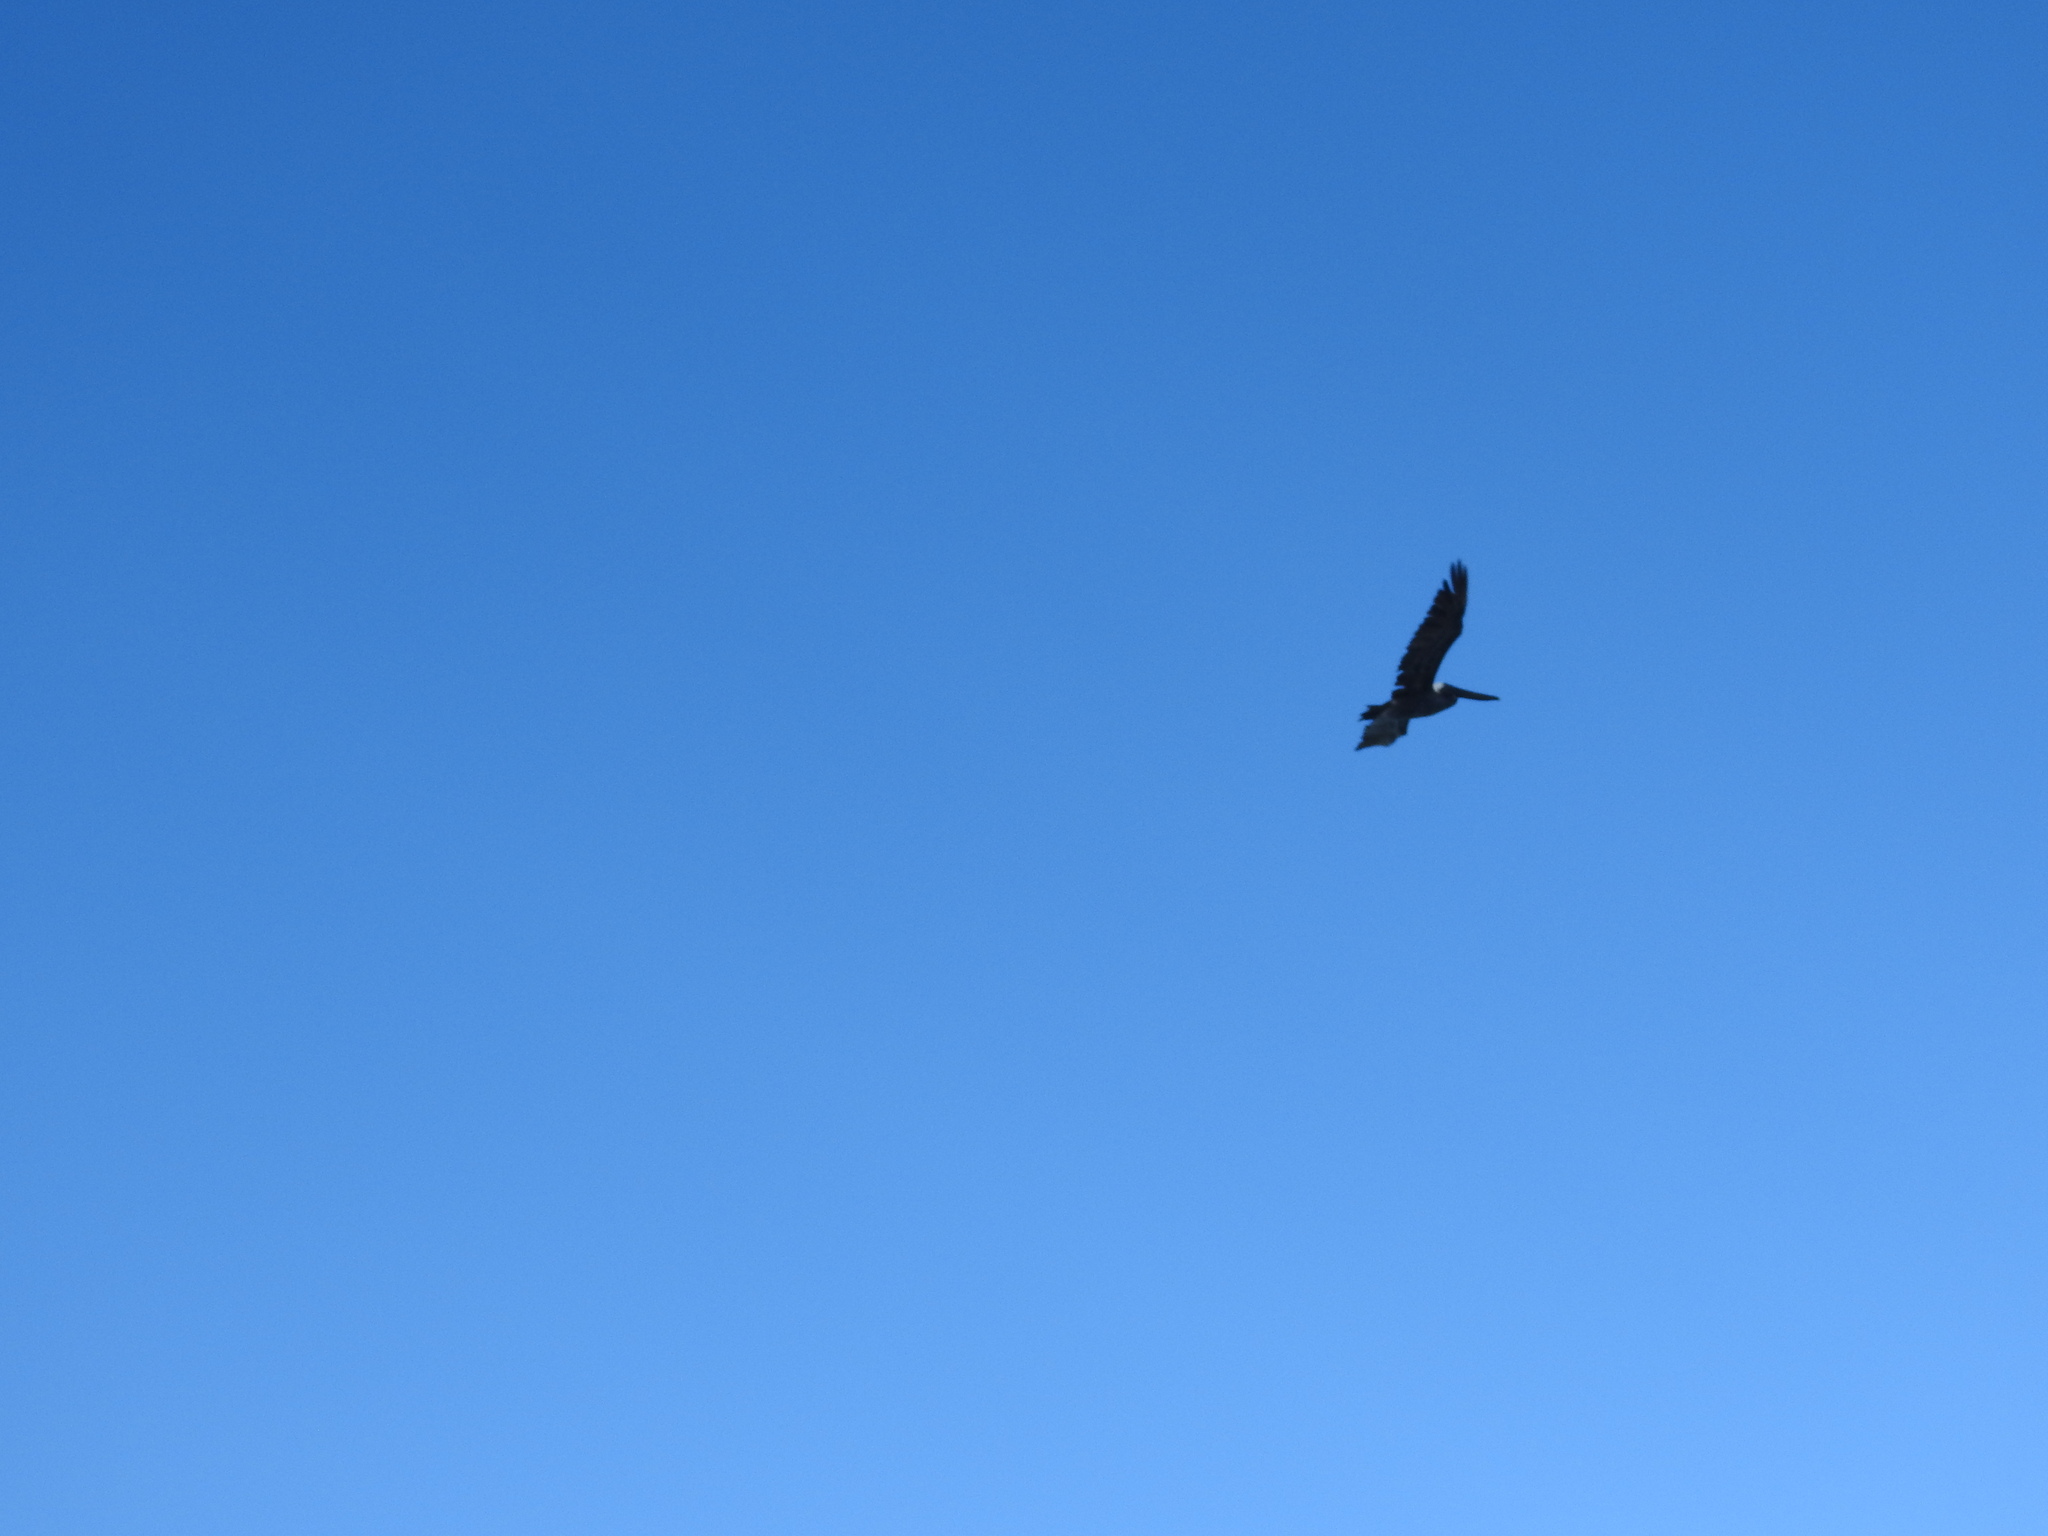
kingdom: Animalia
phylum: Chordata
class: Aves
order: Pelecaniformes
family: Pelecanidae
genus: Pelecanus
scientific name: Pelecanus occidentalis
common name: Brown pelican
